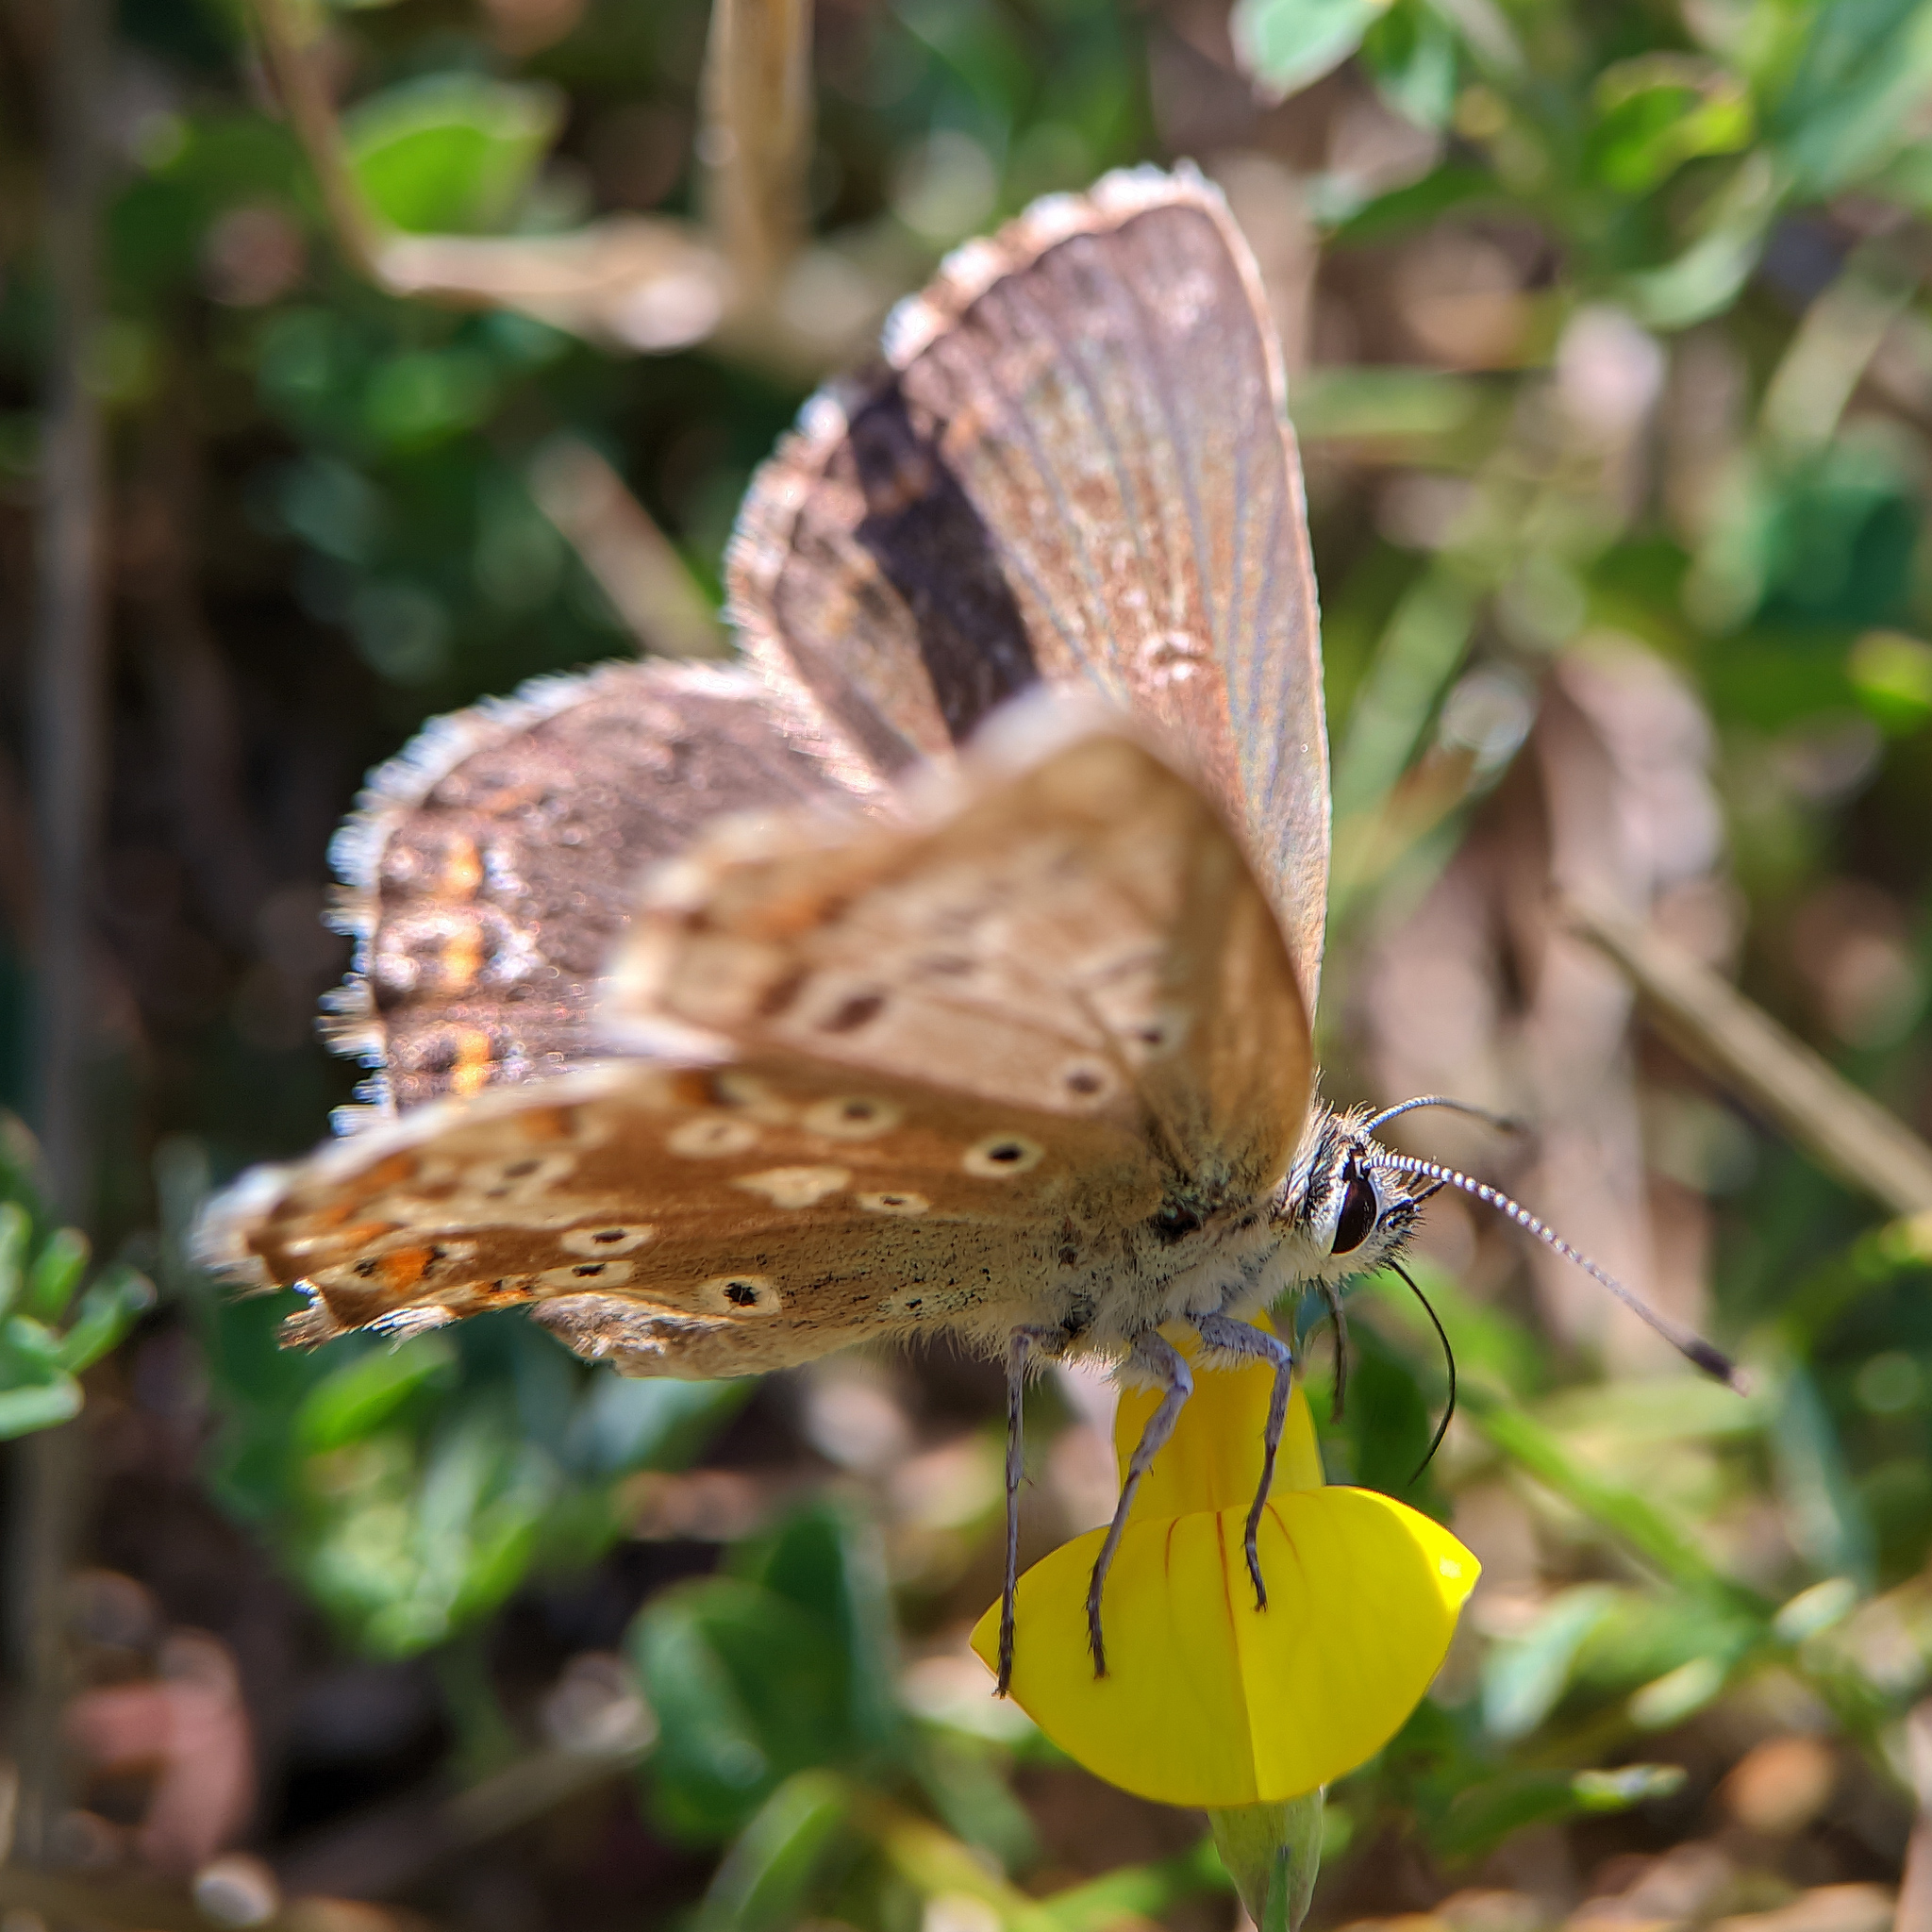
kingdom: Animalia
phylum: Arthropoda
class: Insecta
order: Lepidoptera
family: Lycaenidae
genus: Lysandra
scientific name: Lysandra coridon
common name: Chalkhill blue
